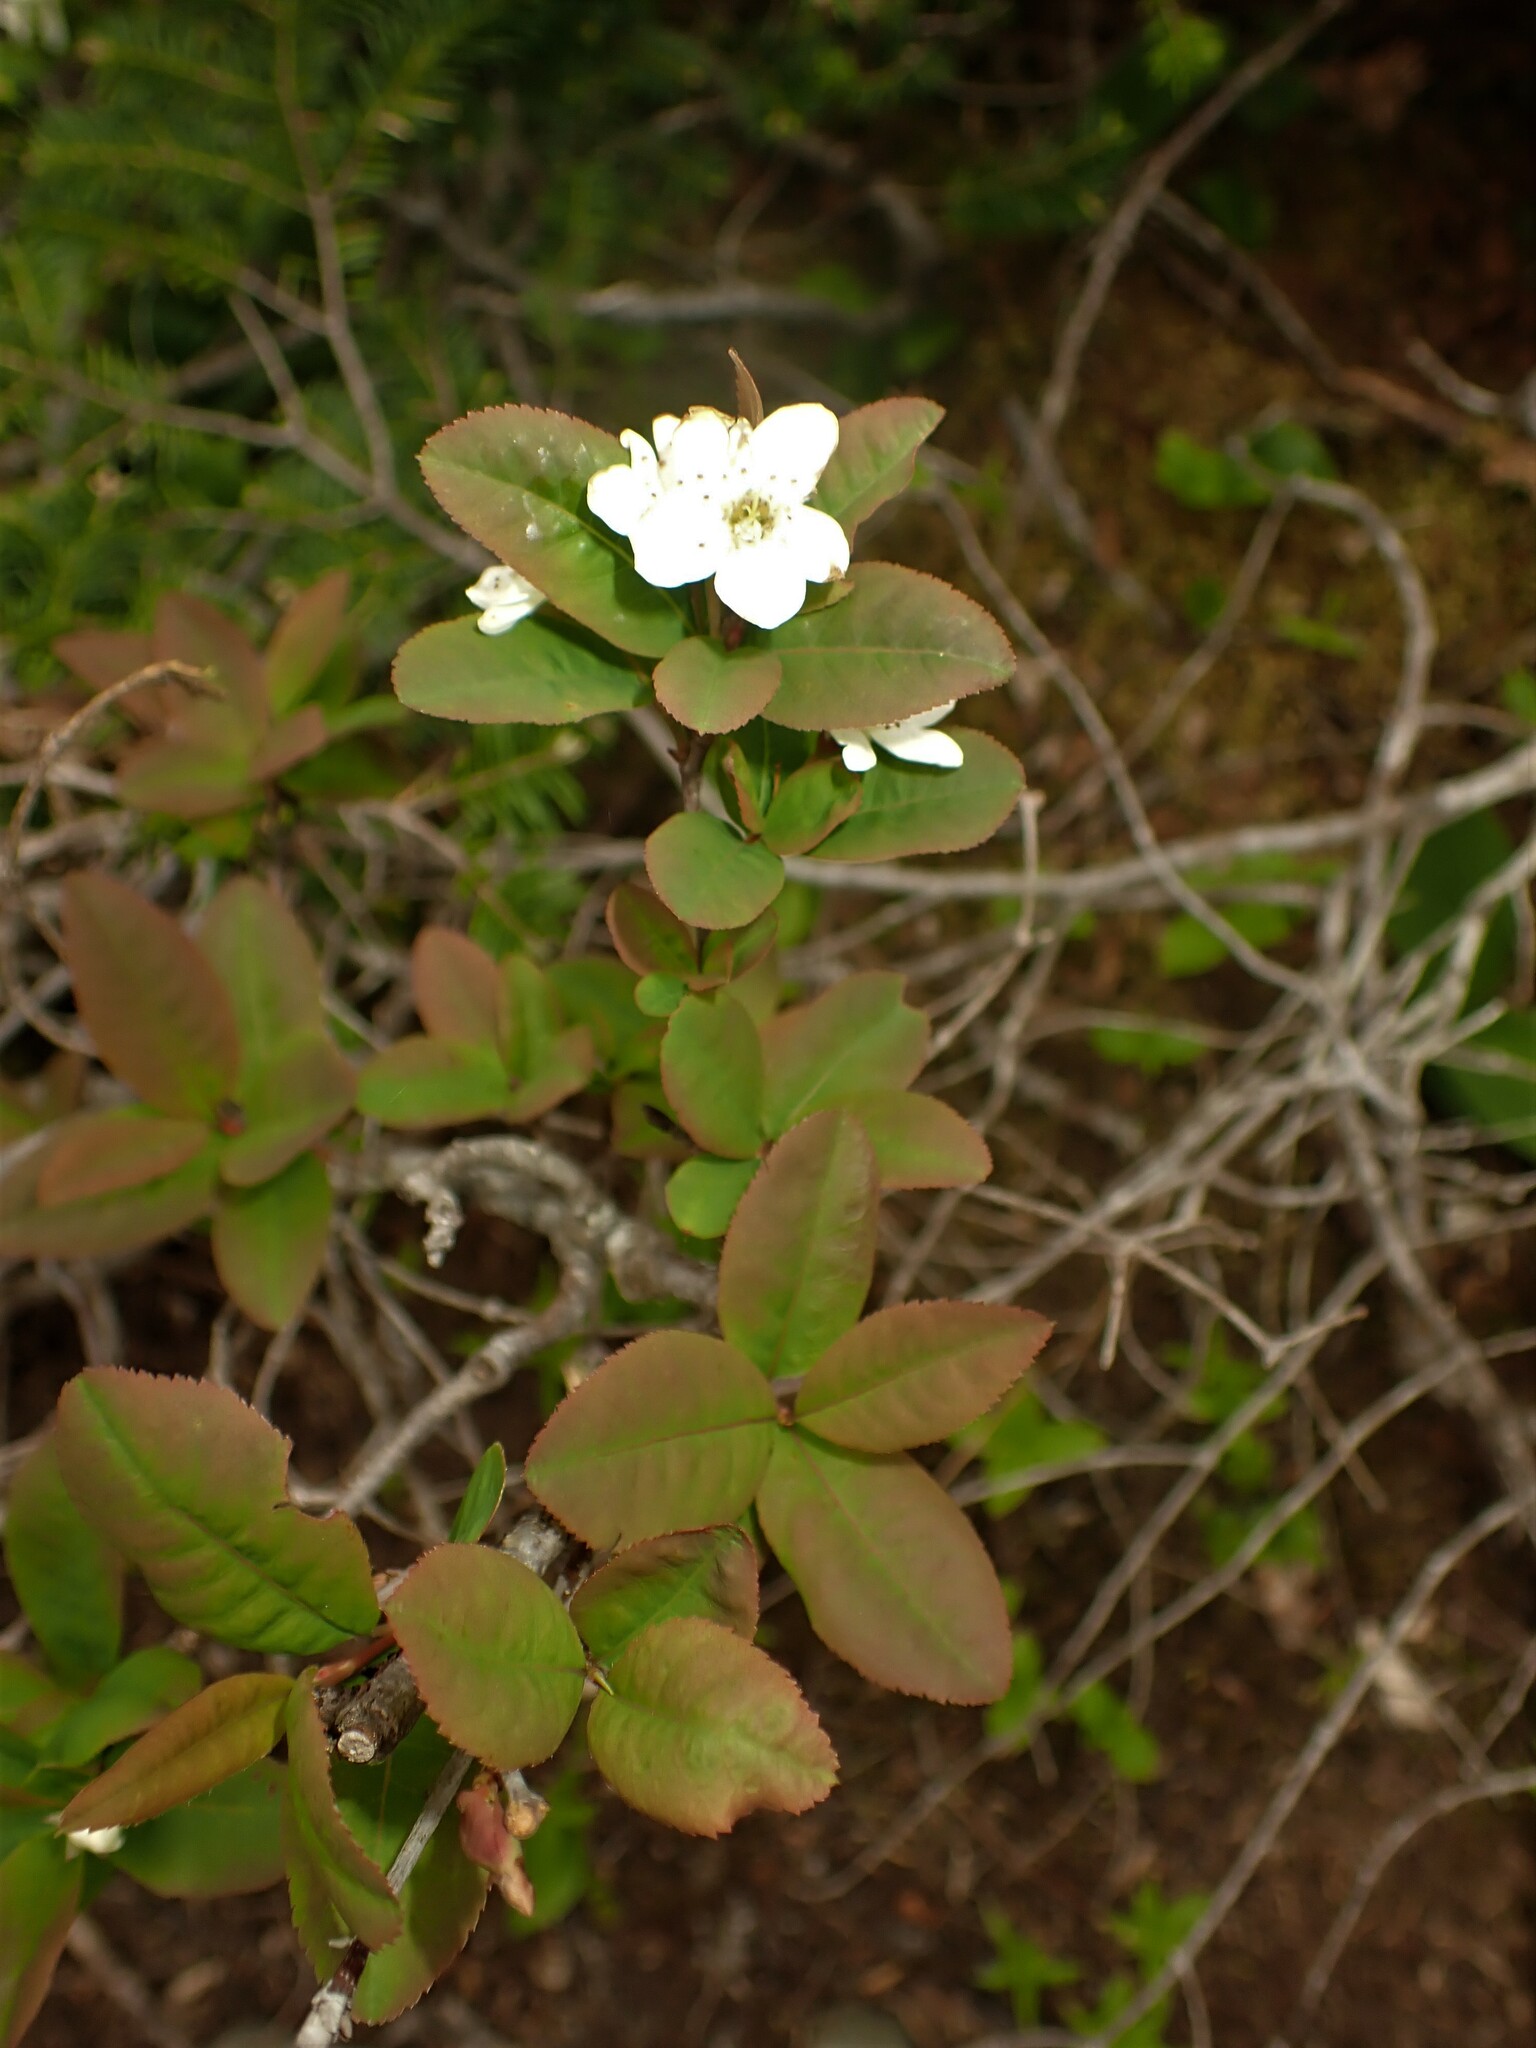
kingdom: Plantae
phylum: Tracheophyta
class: Magnoliopsida
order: Rosales
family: Rosaceae
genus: Amelanchier
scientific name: Amelanchier bartramiana
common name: Mountain serviceberry
